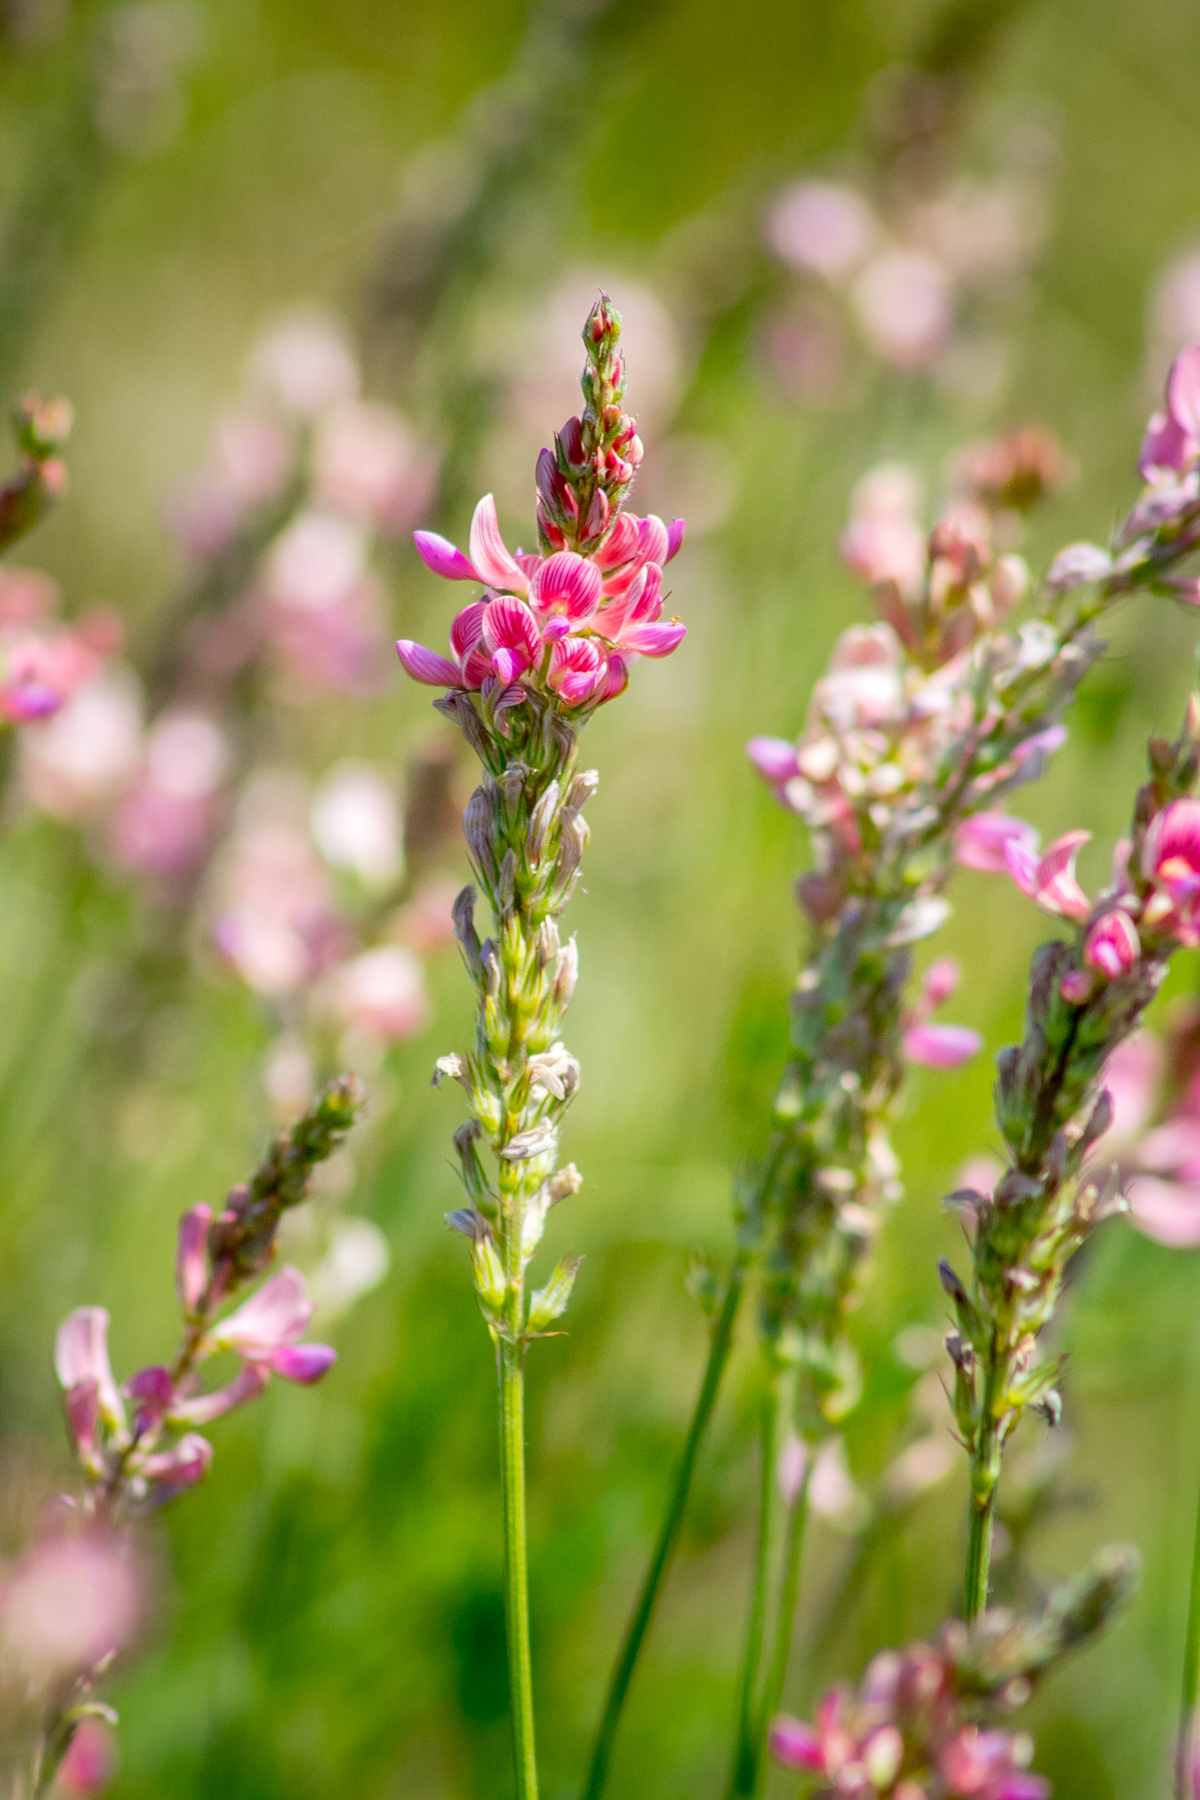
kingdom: Plantae
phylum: Tracheophyta
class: Magnoliopsida
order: Fabales
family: Fabaceae
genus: Onobrychis
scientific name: Onobrychis viciifolia
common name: Sainfoin
